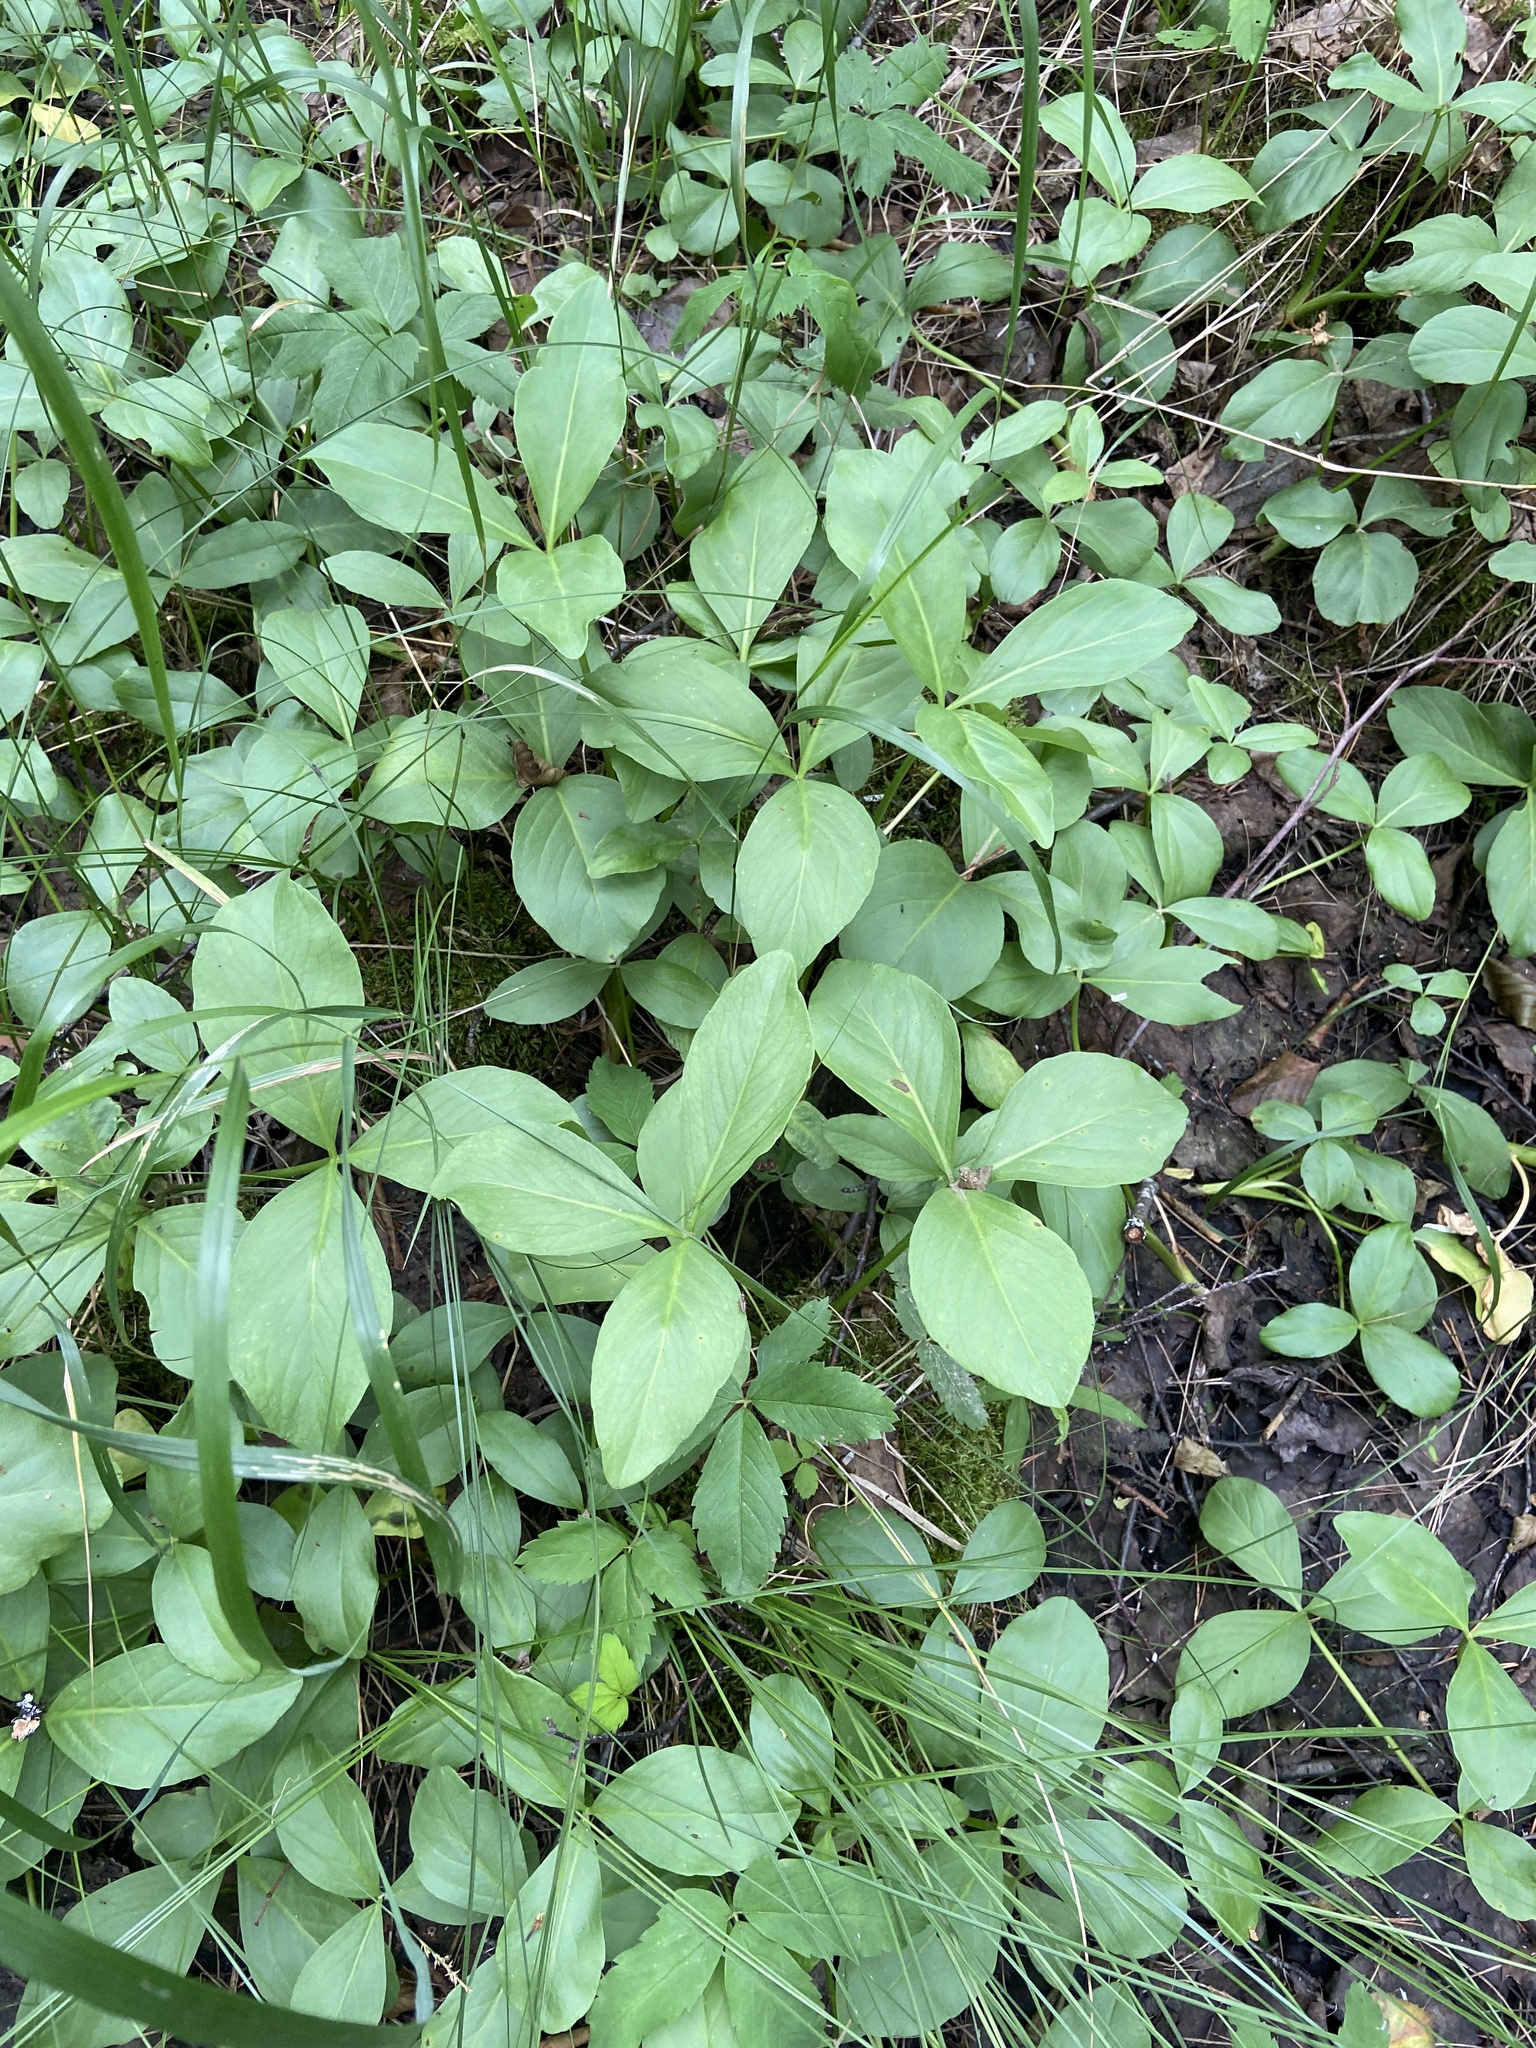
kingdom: Plantae
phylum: Tracheophyta
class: Magnoliopsida
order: Asterales
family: Menyanthaceae
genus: Menyanthes
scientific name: Menyanthes trifoliata
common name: Bogbean
